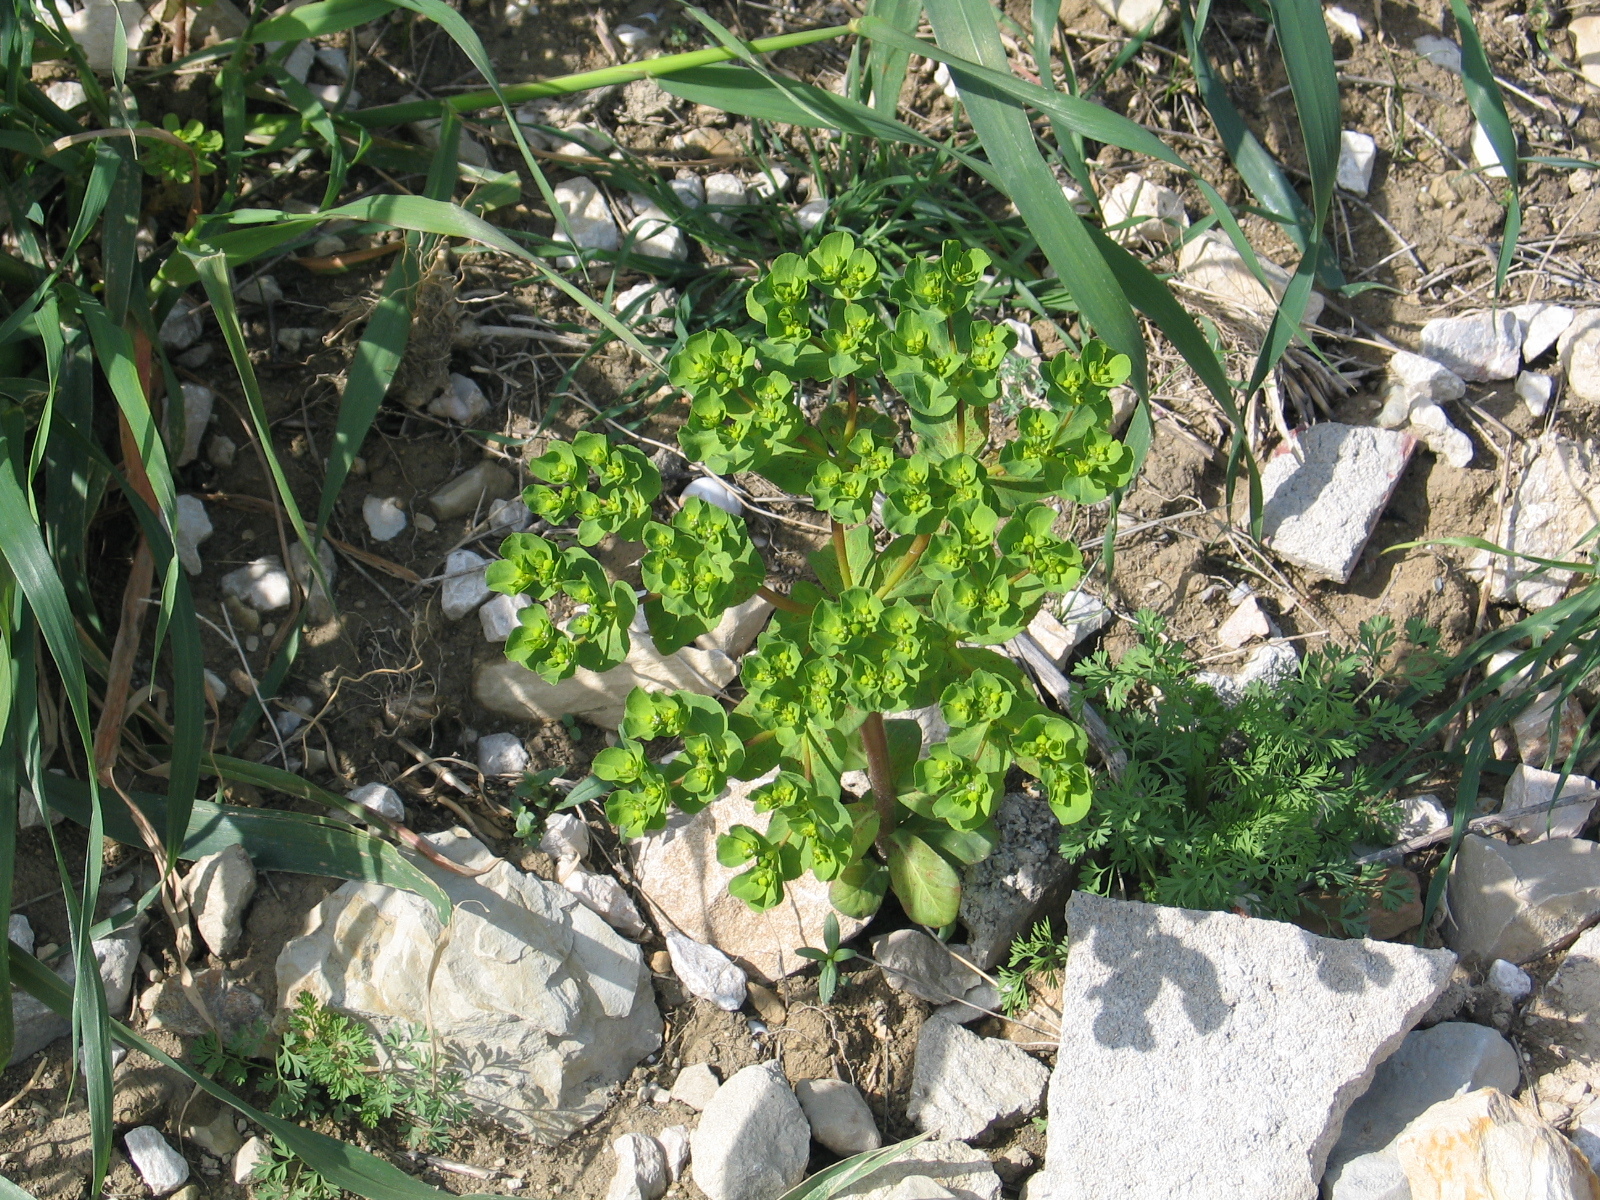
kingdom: Plantae
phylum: Tracheophyta
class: Magnoliopsida
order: Malpighiales
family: Euphorbiaceae
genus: Euphorbia
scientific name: Euphorbia helioscopia
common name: Sun spurge
